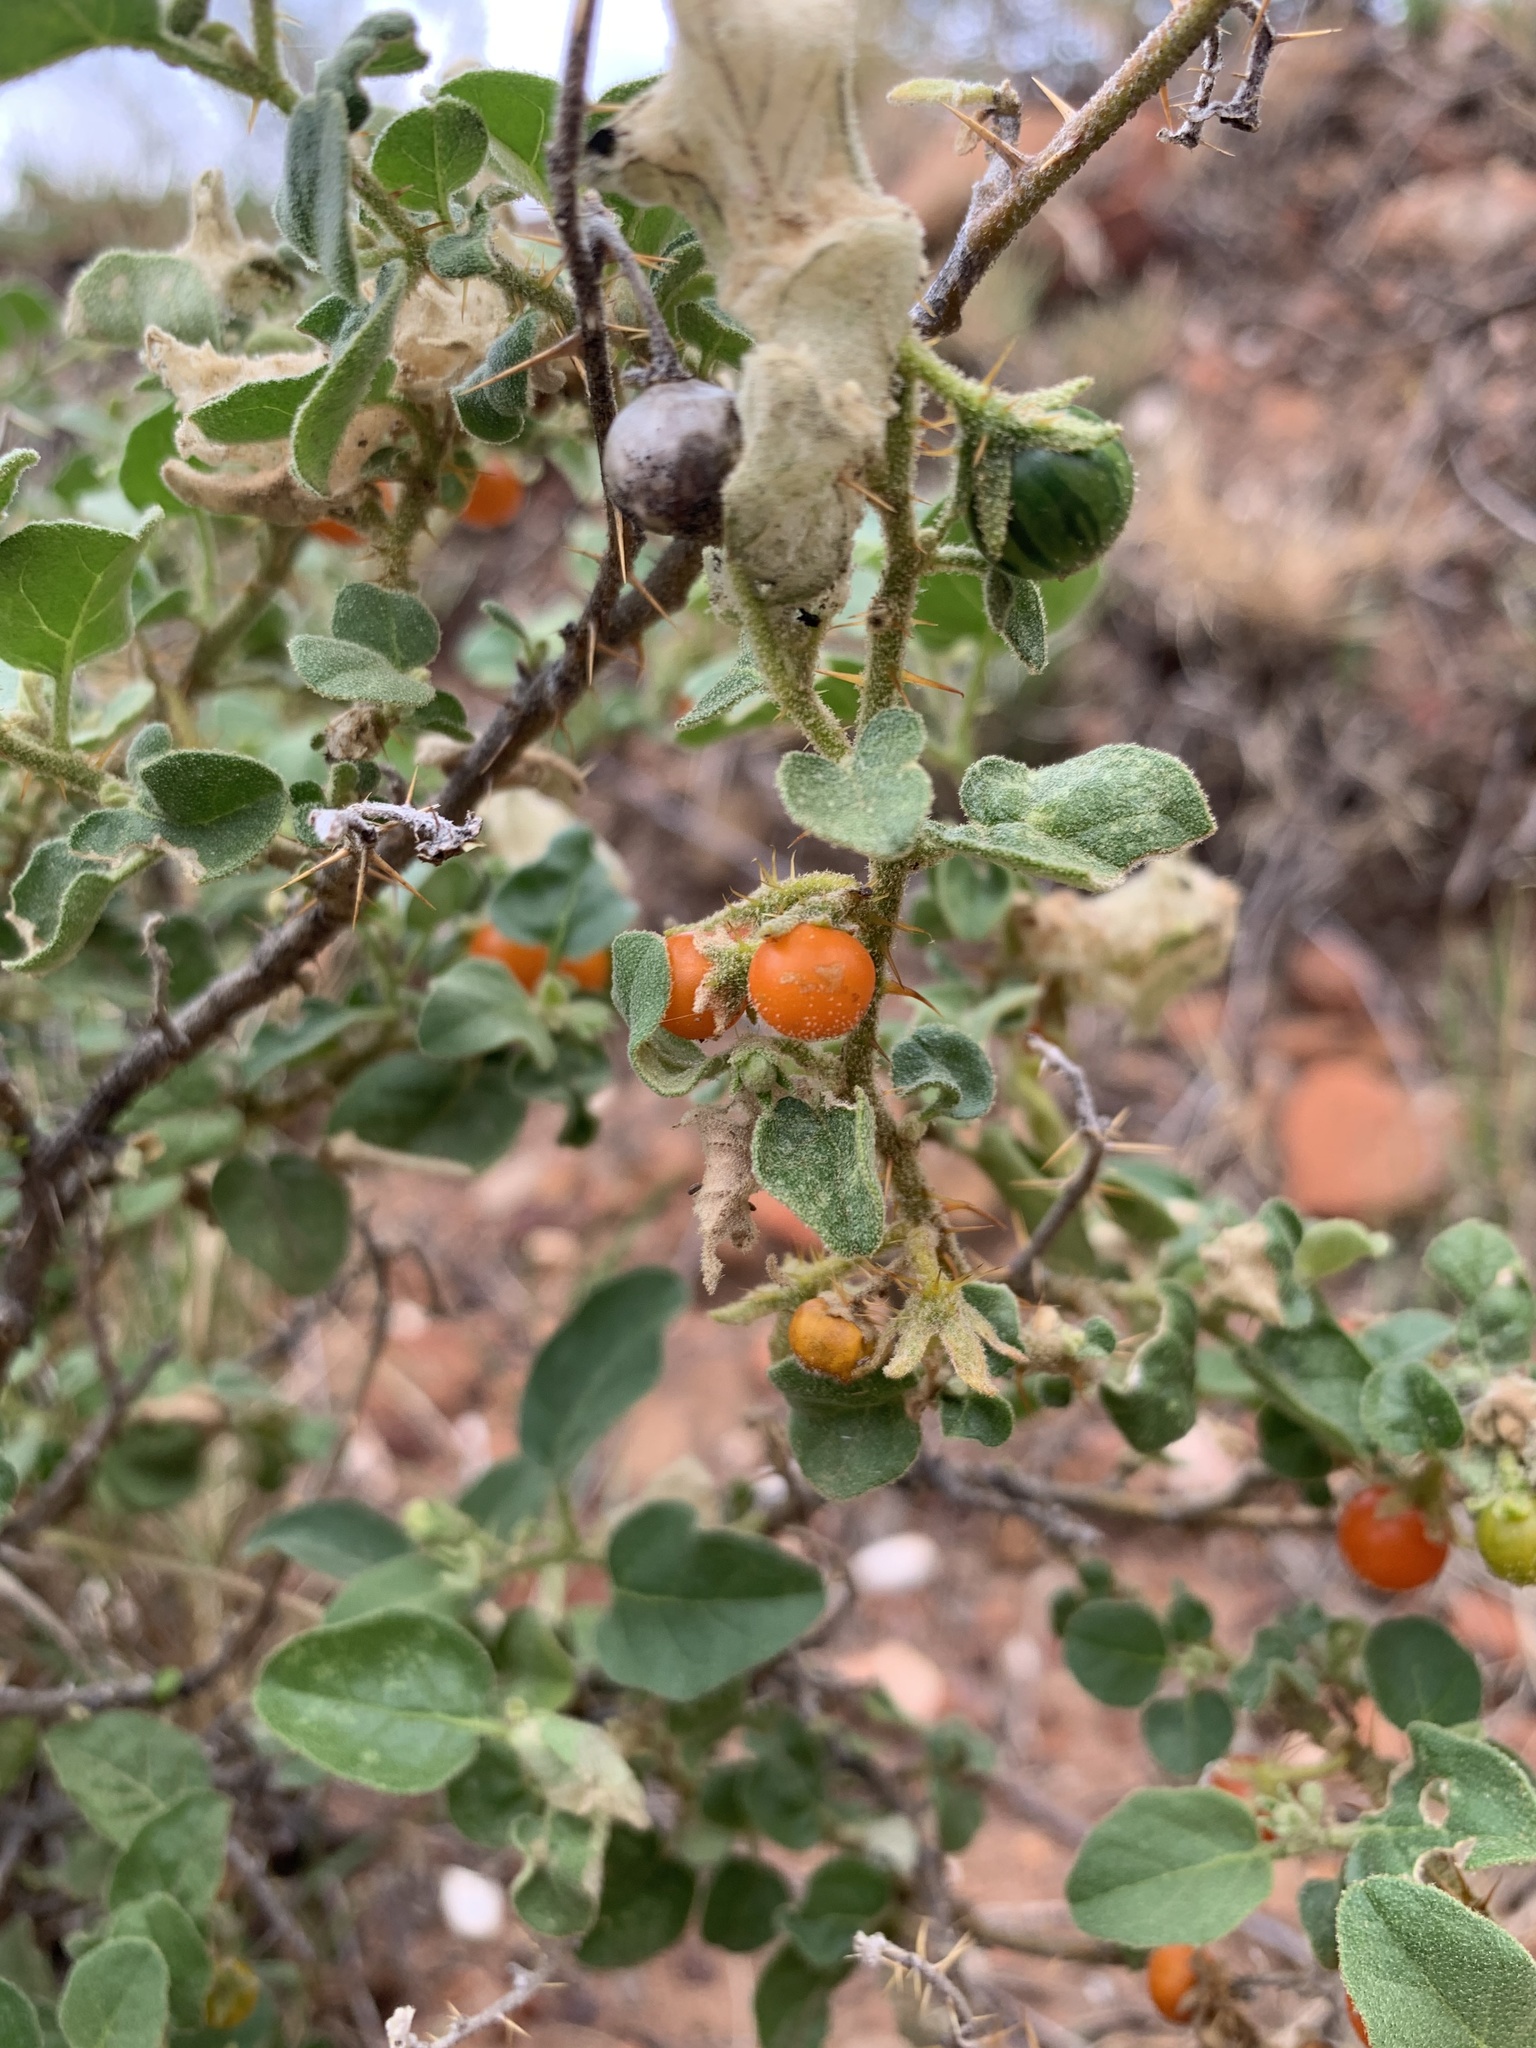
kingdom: Plantae
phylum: Tracheophyta
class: Magnoliopsida
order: Solanales
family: Solanaceae
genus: Solanum
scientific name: Solanum tomentosum
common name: Wild aubergine
